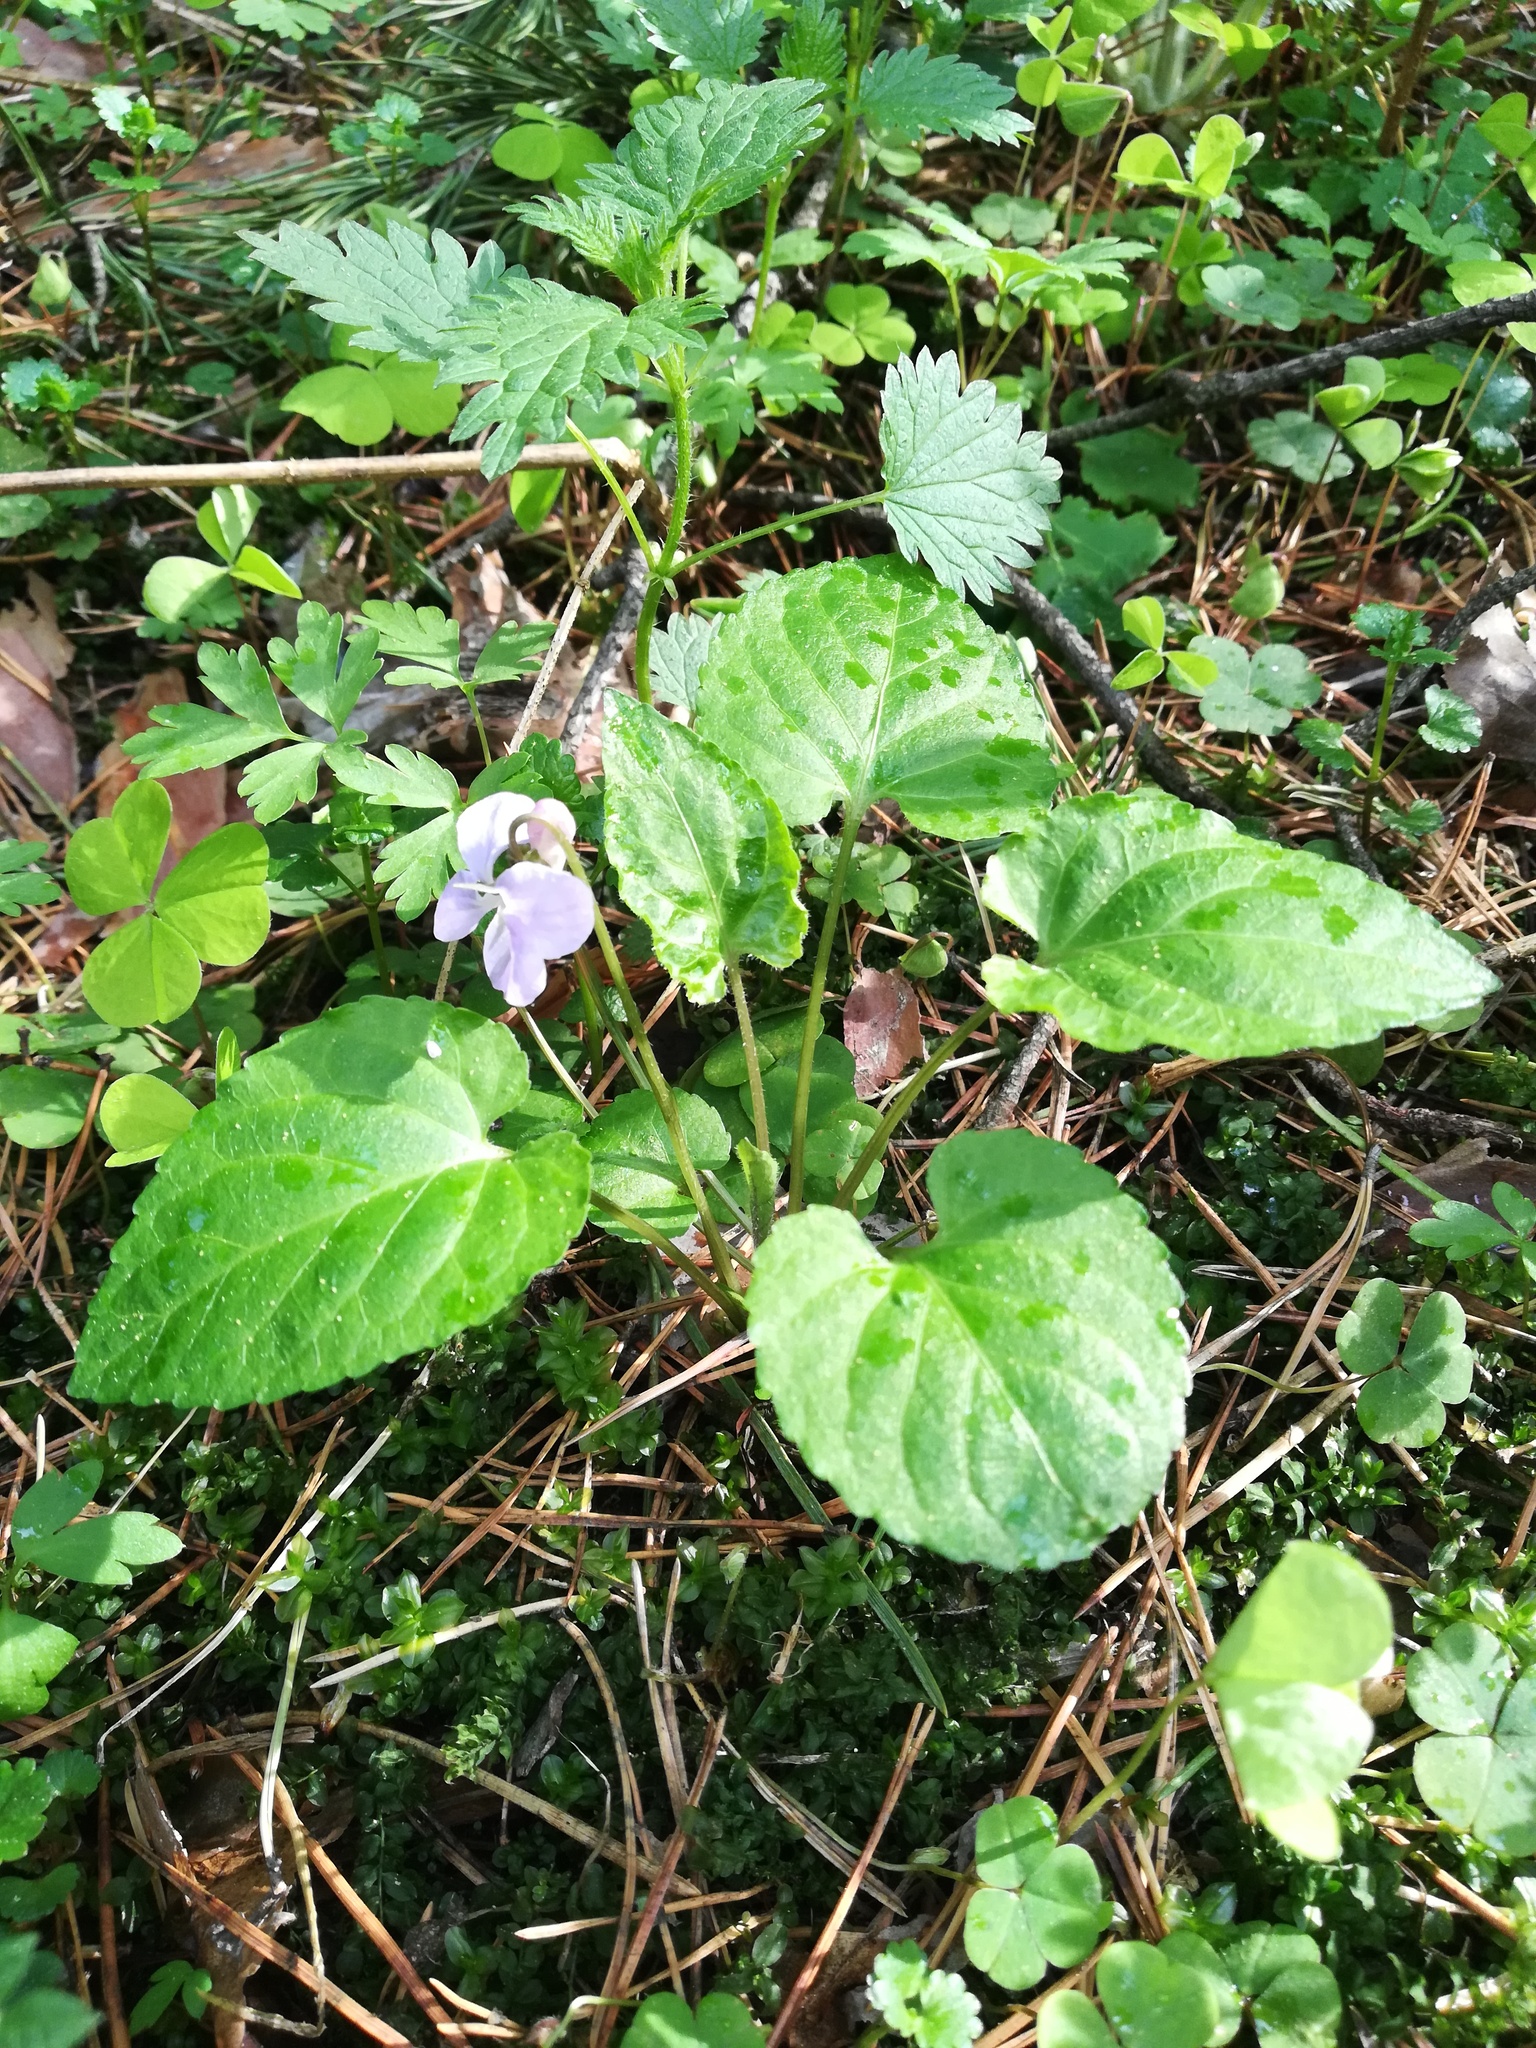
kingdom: Plantae
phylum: Tracheophyta
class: Magnoliopsida
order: Malpighiales
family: Violaceae
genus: Viola
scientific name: Viola selkirkii
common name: Selkirk's violet
